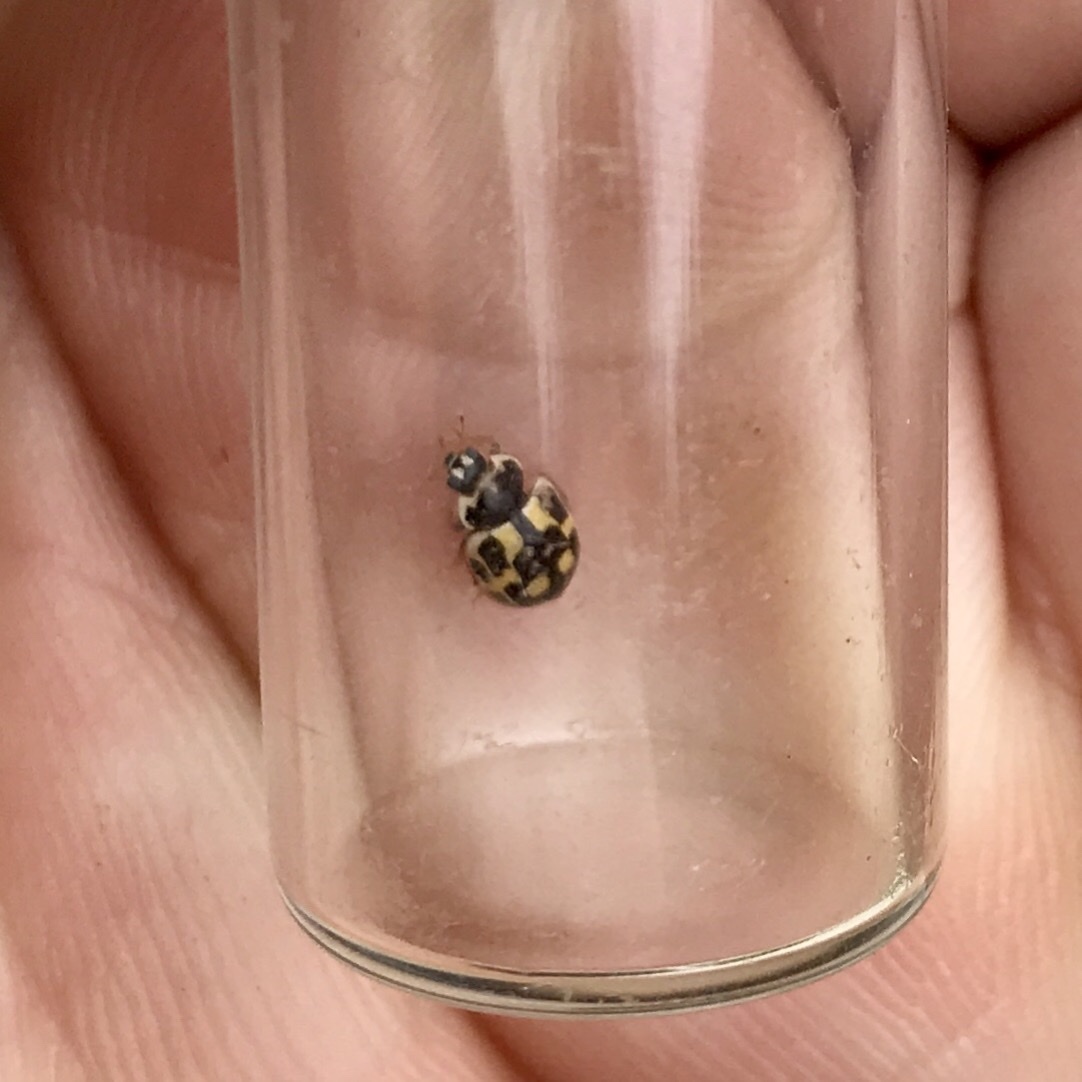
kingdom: Animalia
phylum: Arthropoda
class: Insecta
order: Coleoptera
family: Coccinellidae
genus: Propylaea
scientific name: Propylaea quatuordecimpunctata
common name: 14-spotted ladybird beetle
